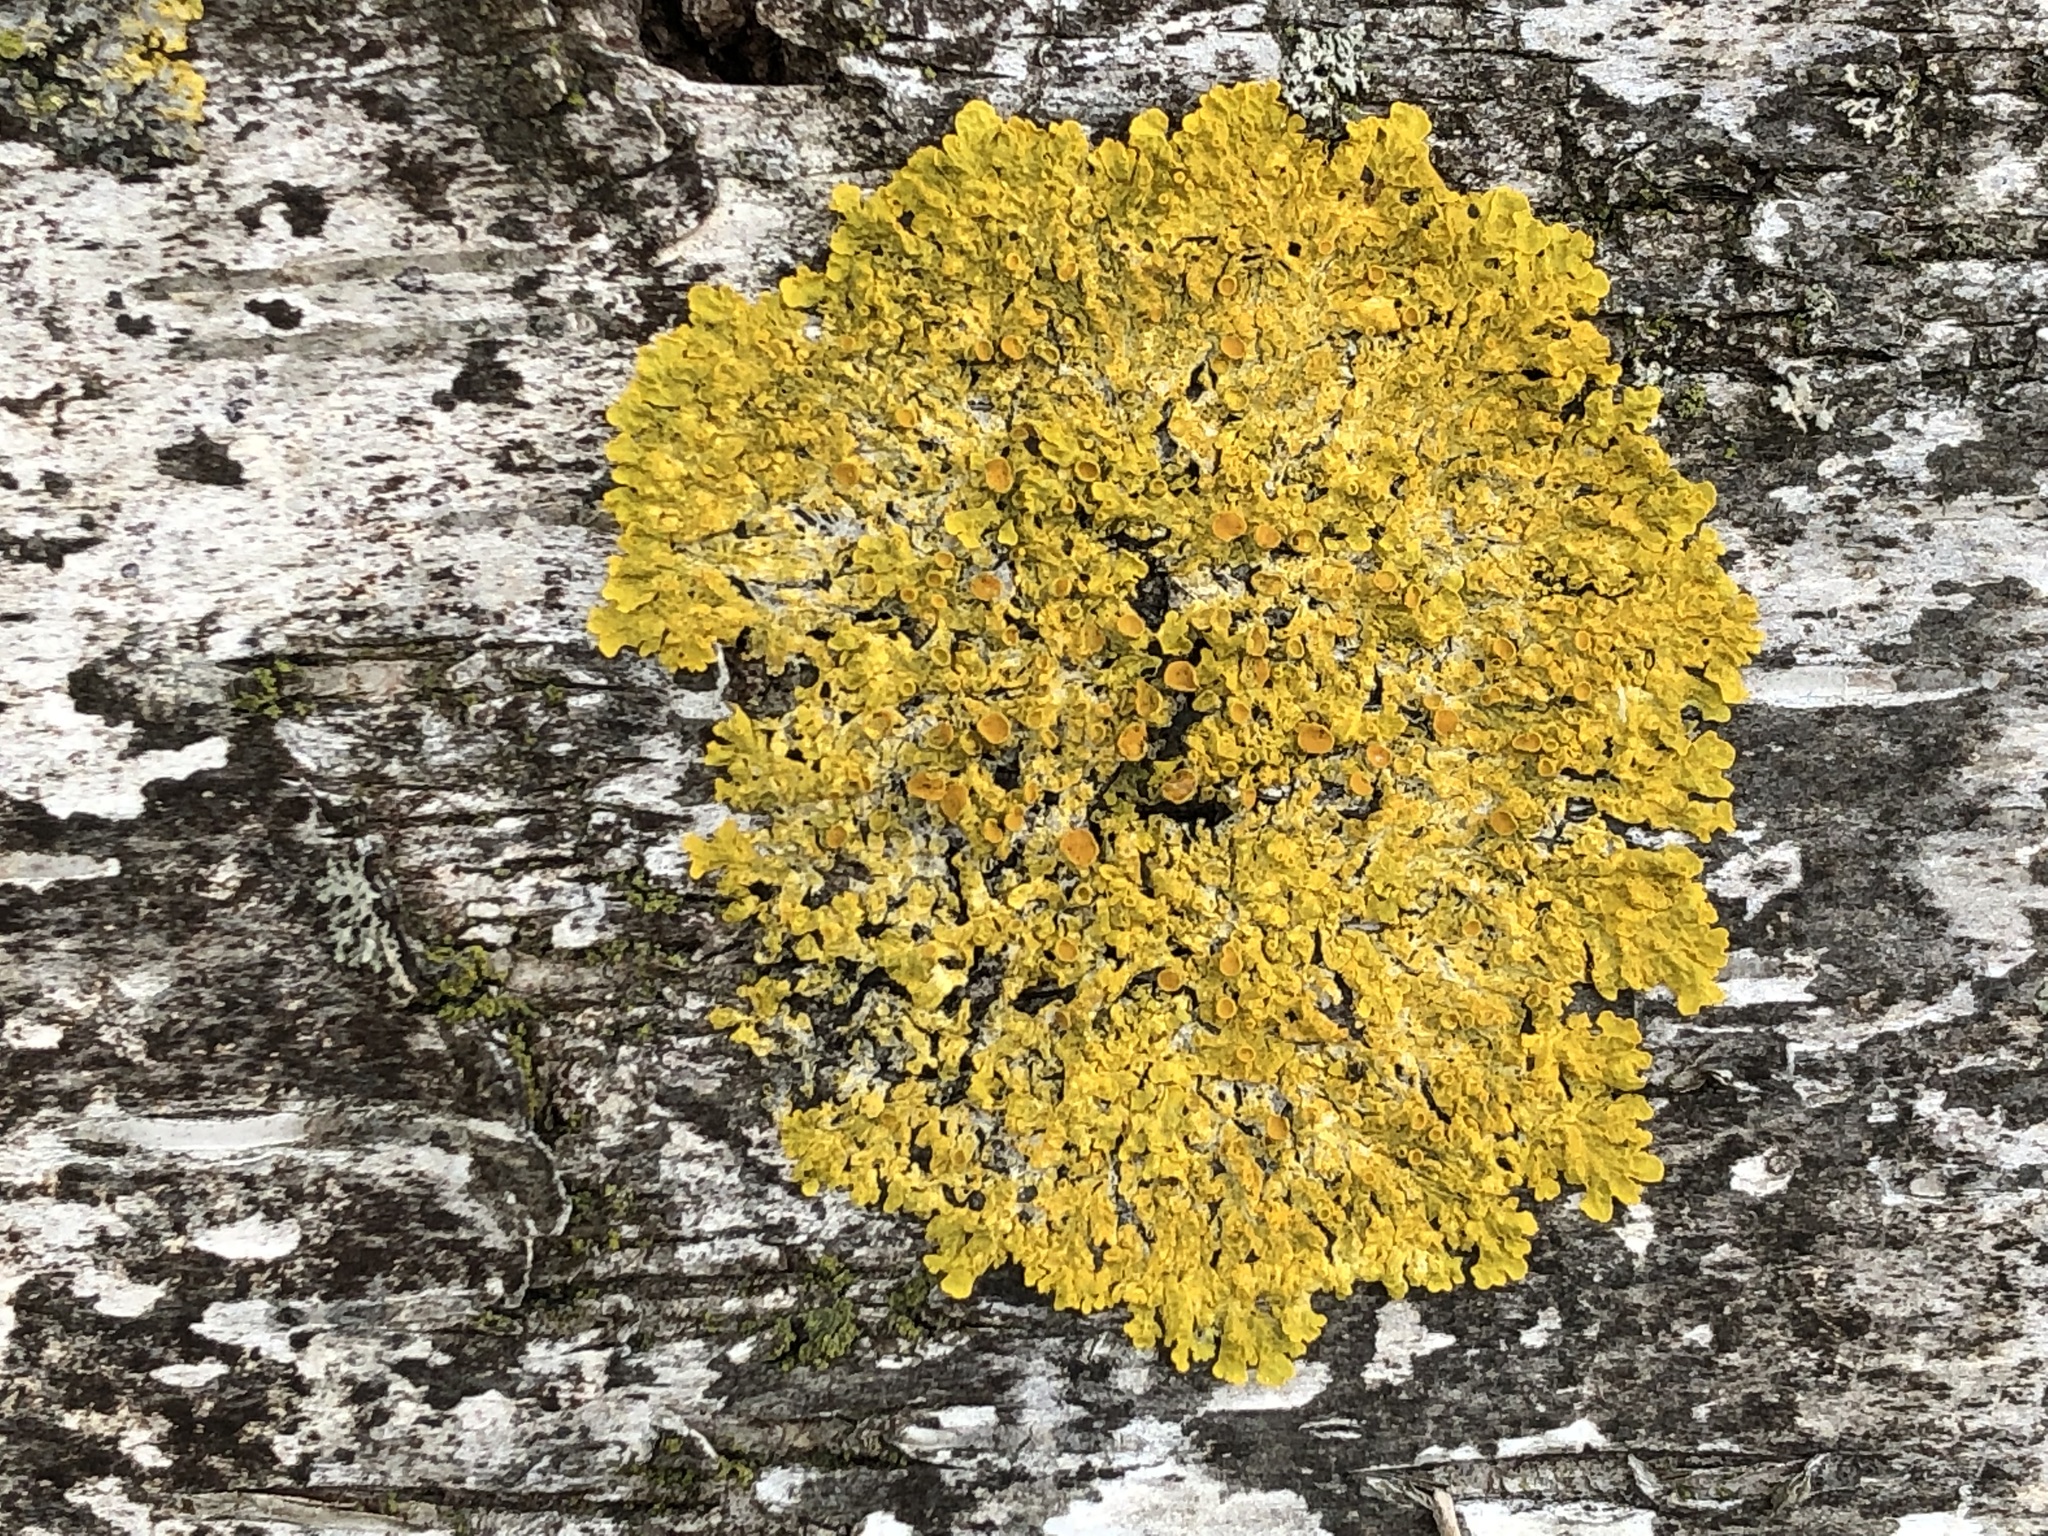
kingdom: Fungi
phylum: Ascomycota
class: Lecanoromycetes
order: Teloschistales
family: Teloschistaceae
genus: Xanthoria
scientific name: Xanthoria parietina
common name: Common orange lichen
